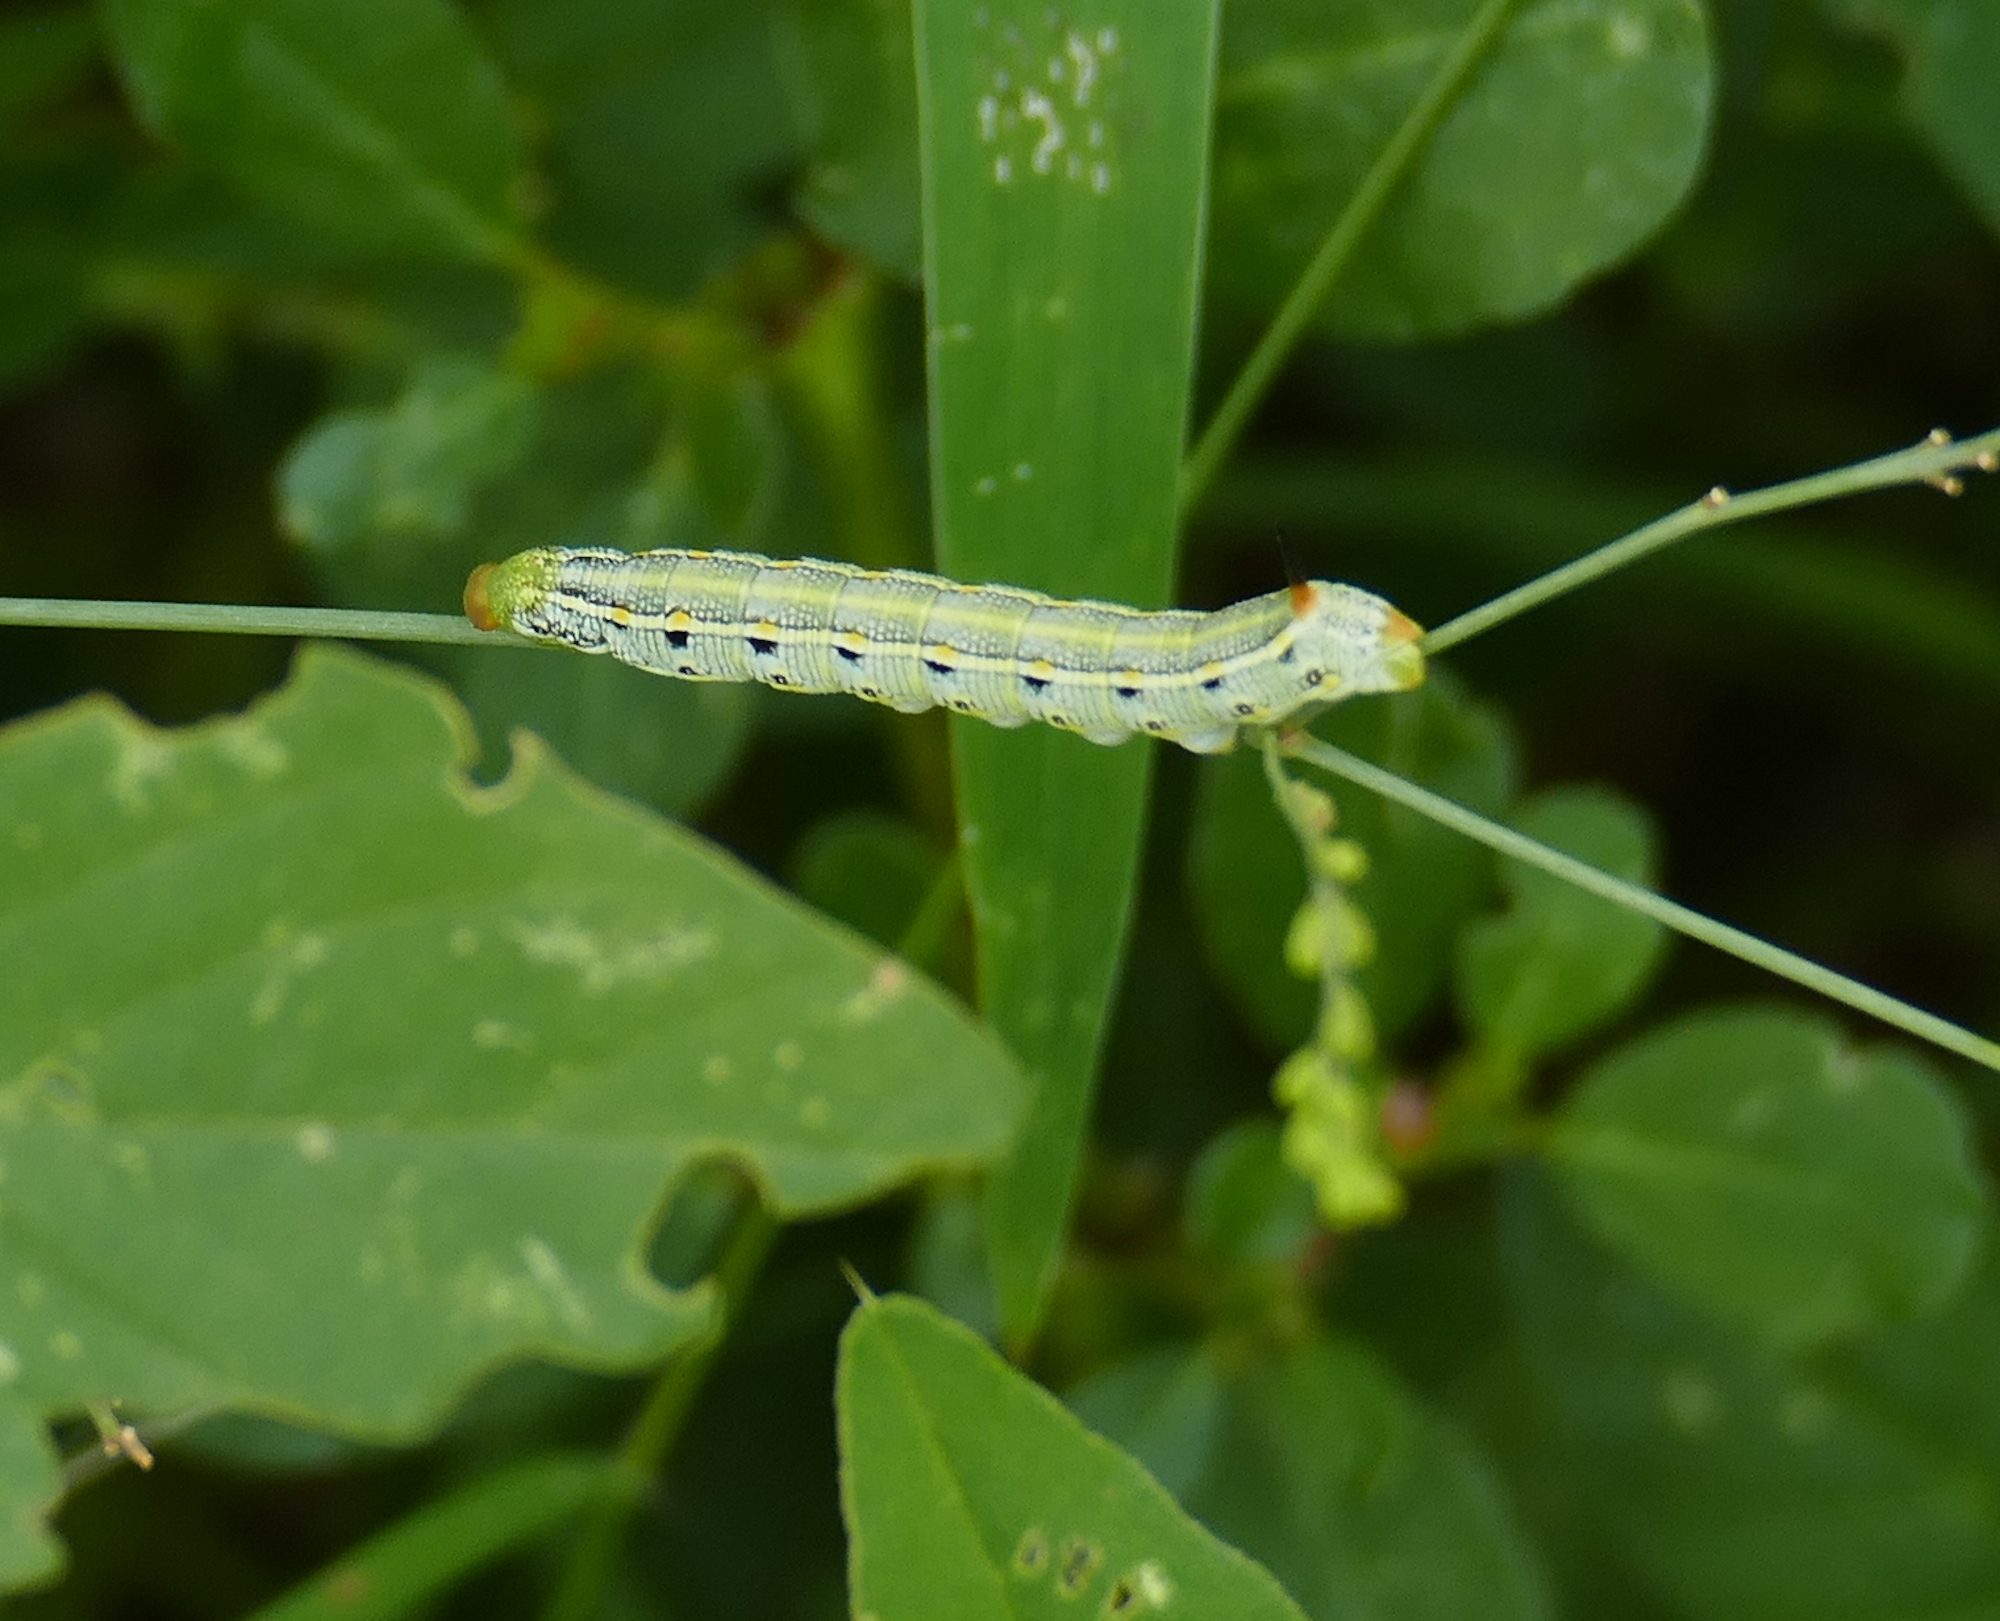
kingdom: Animalia
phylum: Arthropoda
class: Insecta
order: Lepidoptera
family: Sphingidae
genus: Hyles
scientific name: Hyles lineata
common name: White-lined sphinx
